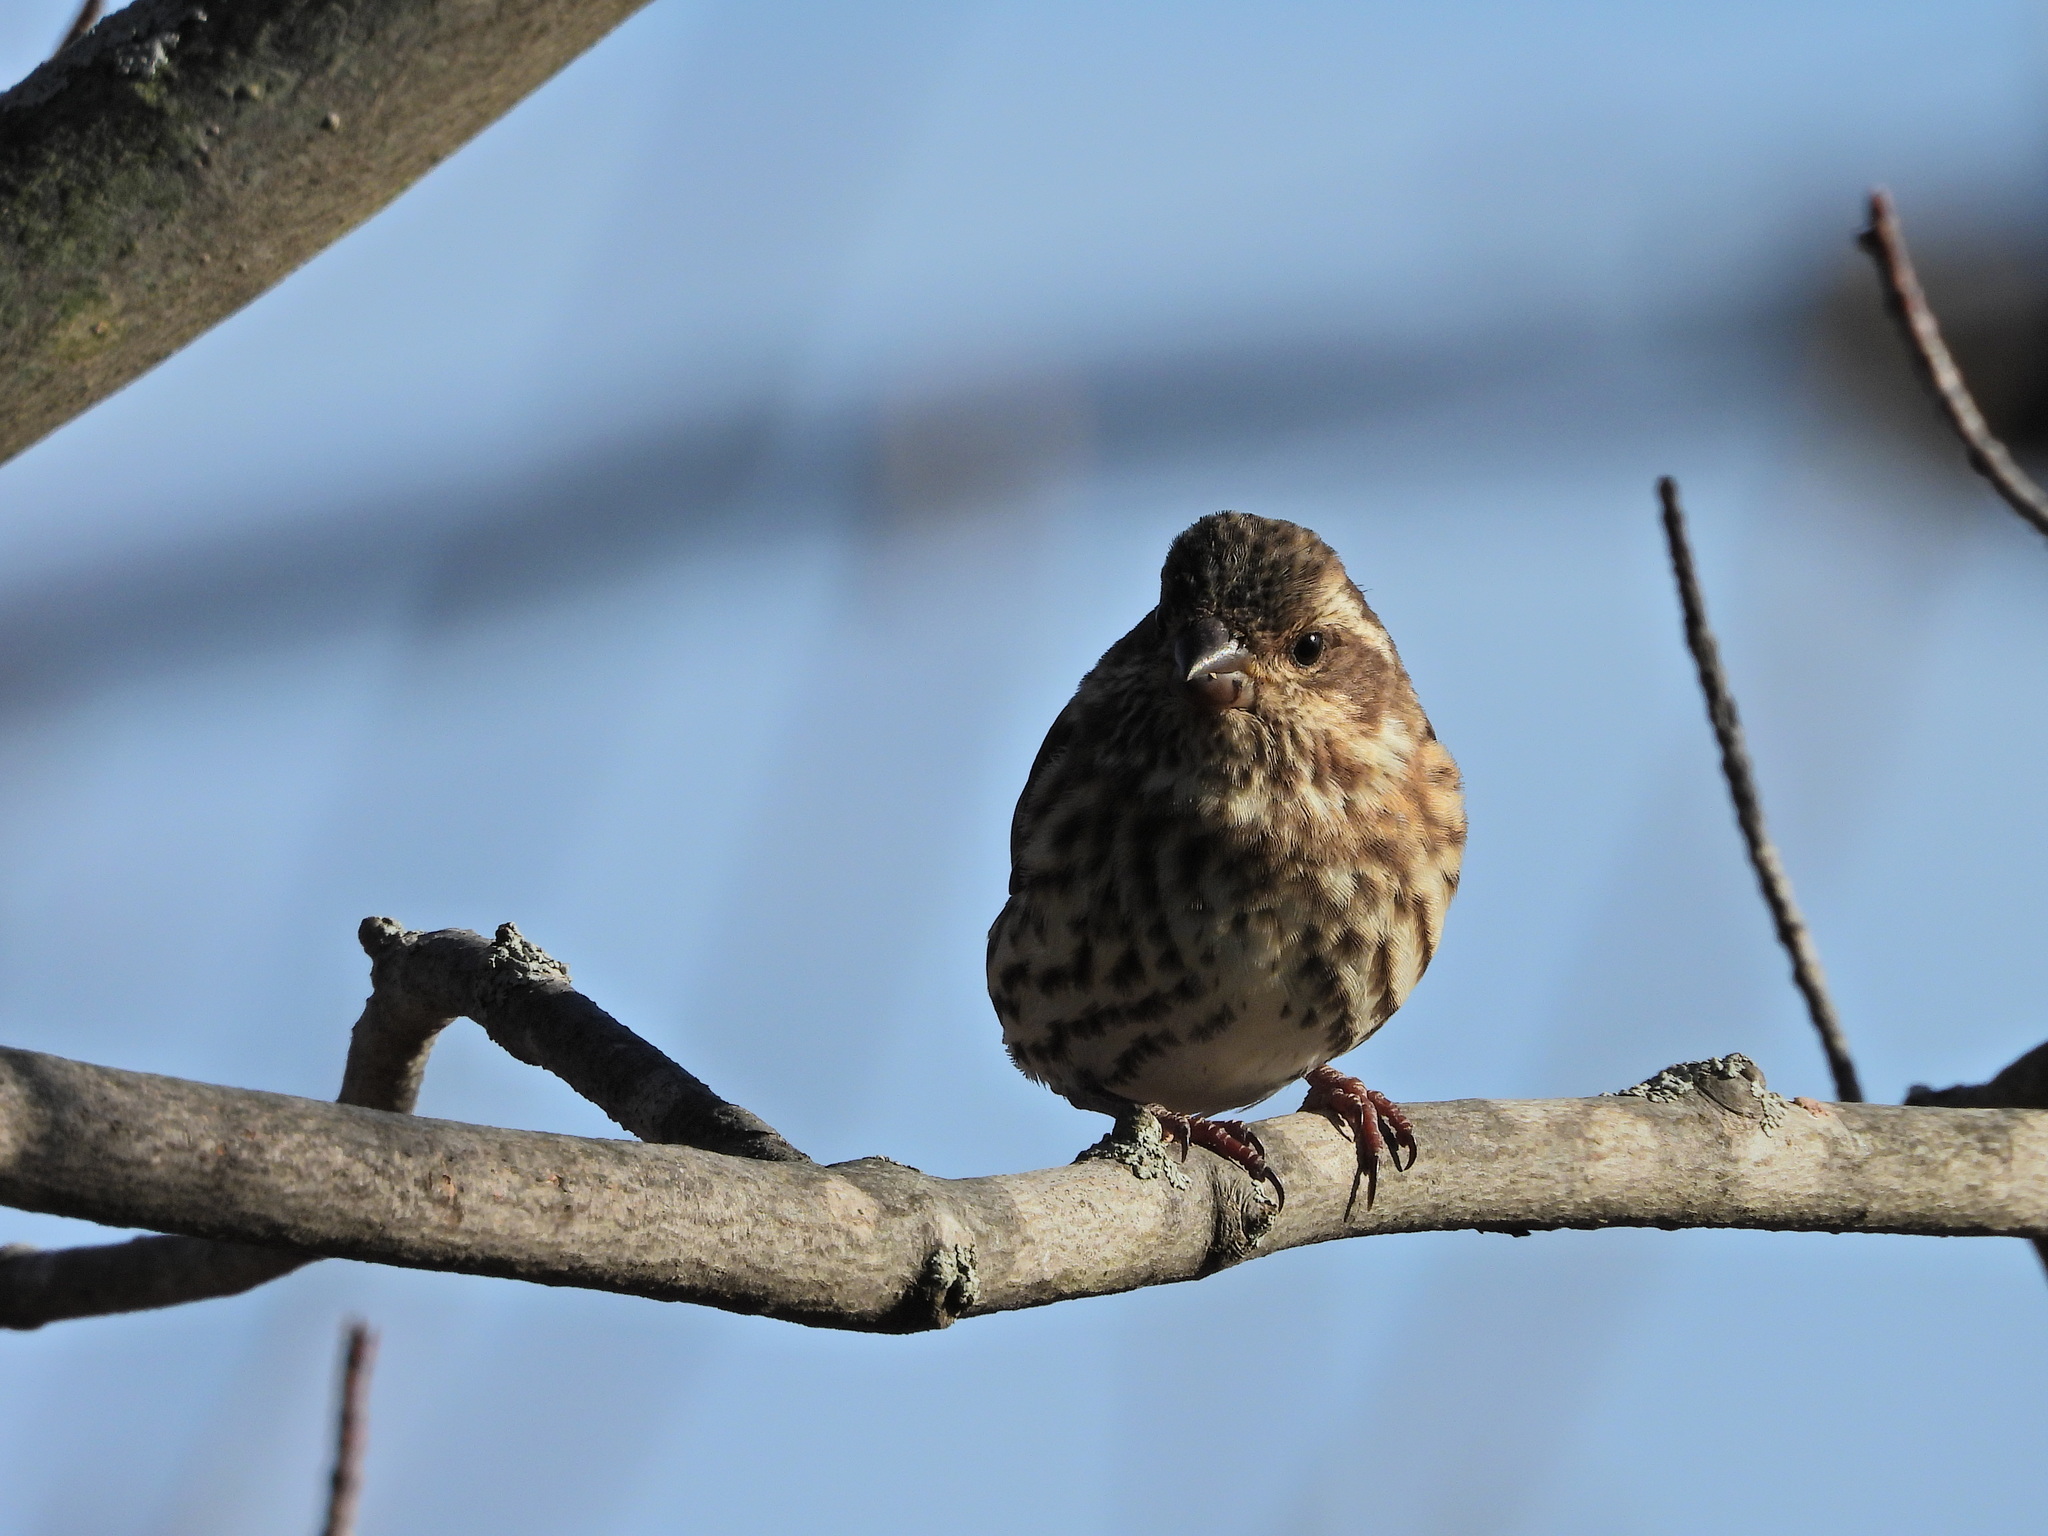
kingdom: Animalia
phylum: Chordata
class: Aves
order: Passeriformes
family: Fringillidae
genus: Haemorhous
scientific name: Haemorhous purpureus
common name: Purple finch
